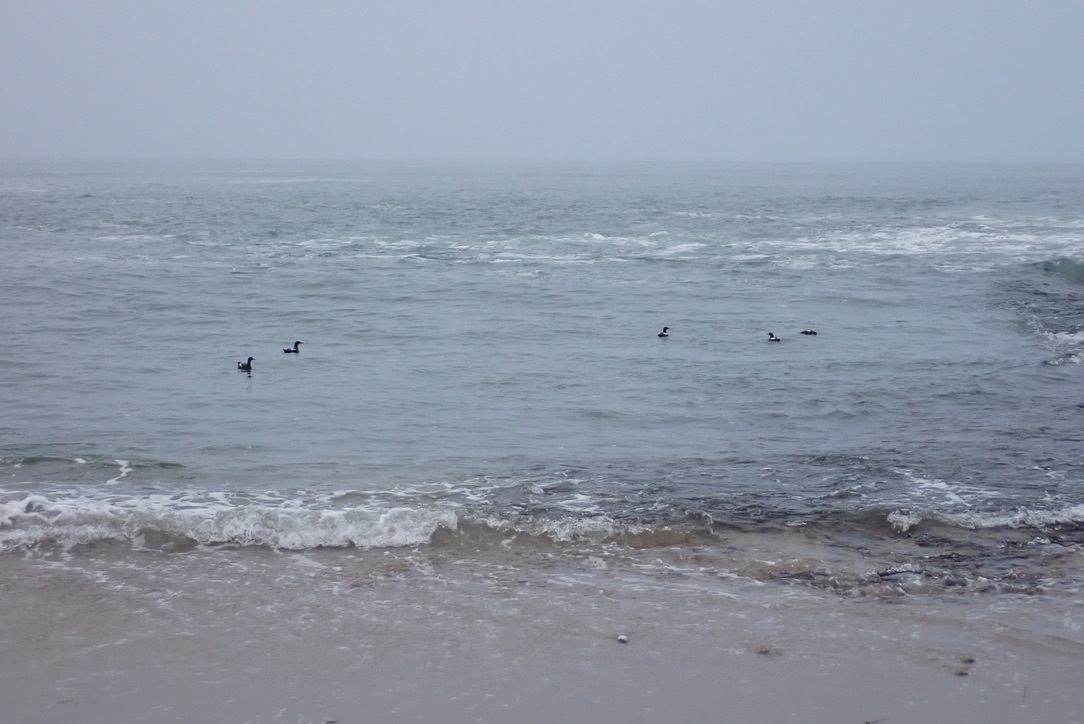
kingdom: Animalia
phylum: Chordata
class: Aves
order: Charadriiformes
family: Alcidae
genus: Cepphus
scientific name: Cepphus columba
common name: Pigeon guillemot
